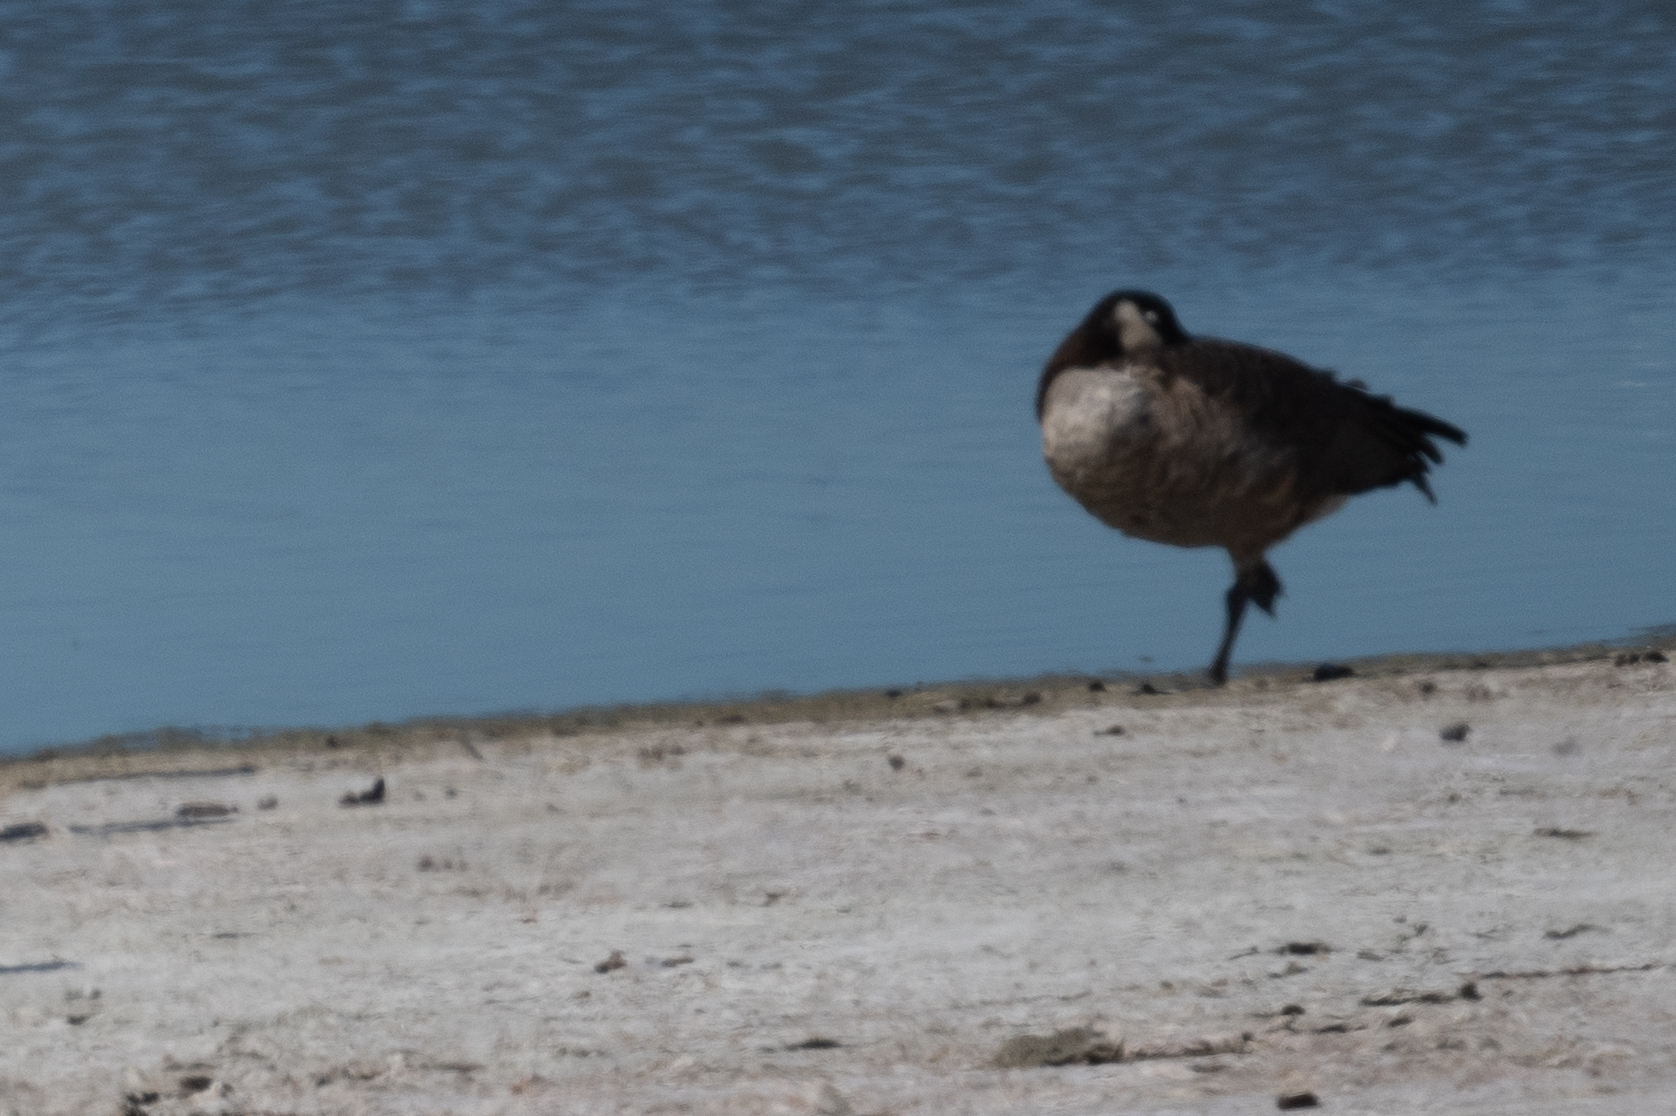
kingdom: Animalia
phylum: Chordata
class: Aves
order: Anseriformes
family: Anatidae
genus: Branta
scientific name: Branta canadensis
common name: Canada goose
